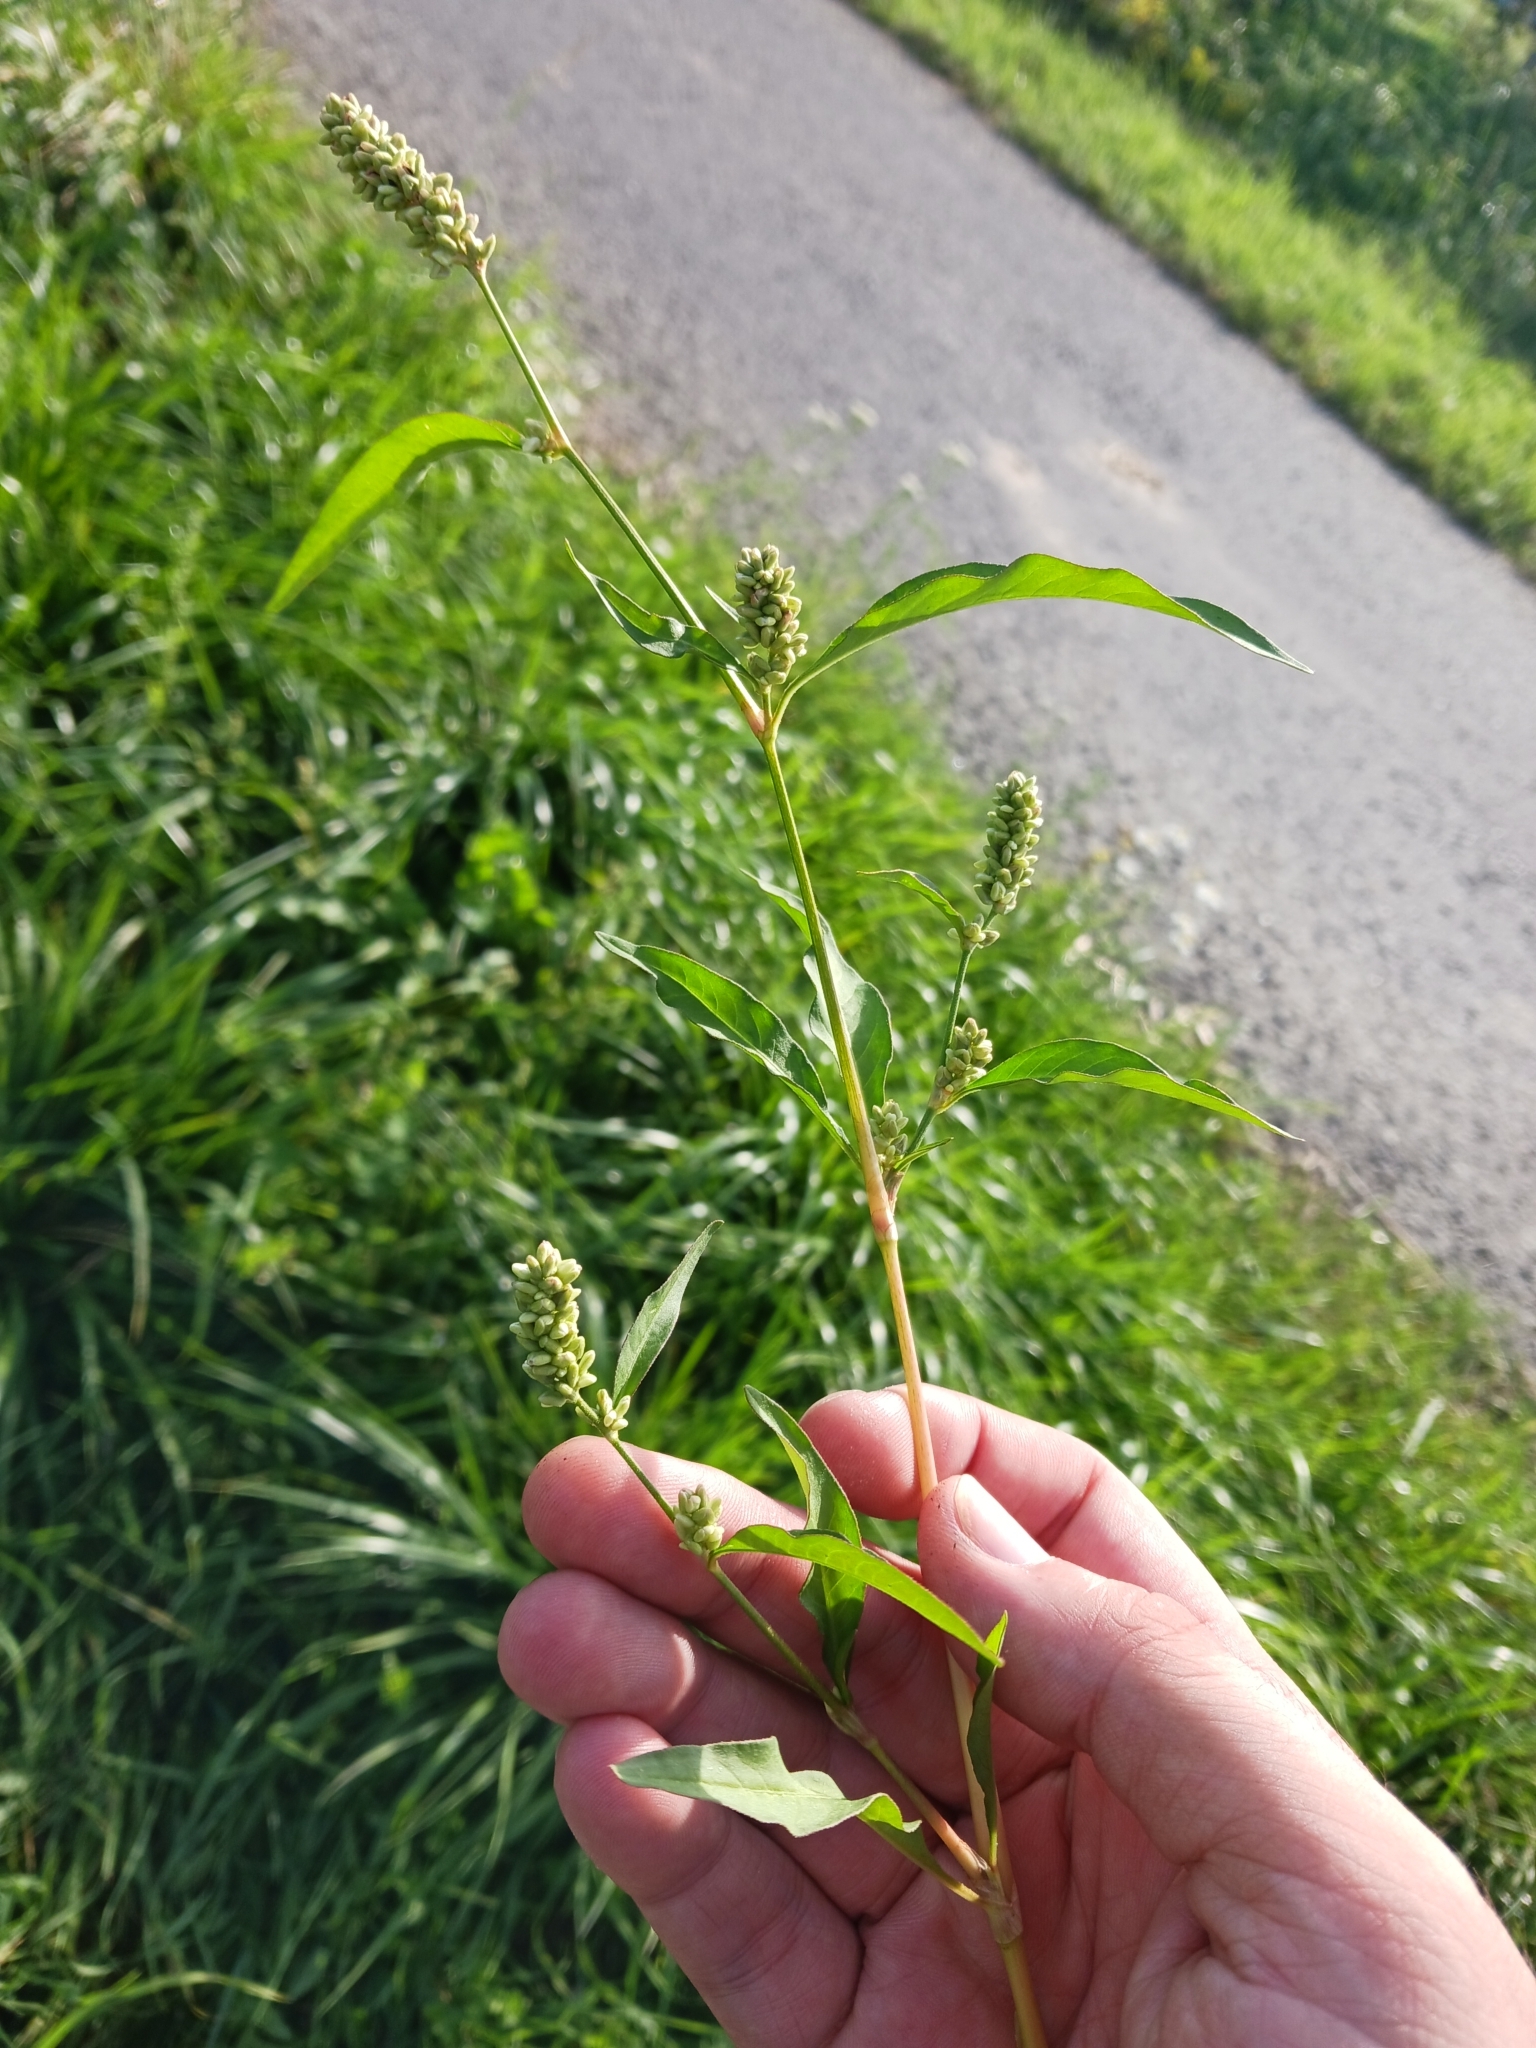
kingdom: Plantae
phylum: Tracheophyta
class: Magnoliopsida
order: Caryophyllales
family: Polygonaceae
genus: Persicaria
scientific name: Persicaria lapathifolia
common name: Curlytop knotweed
